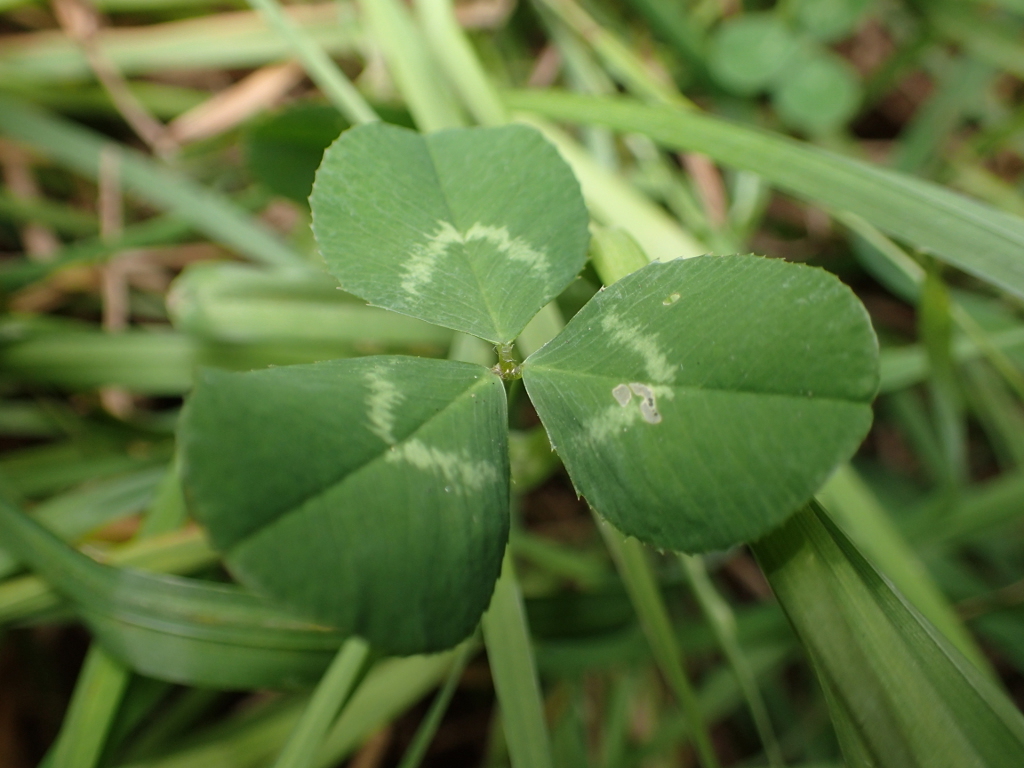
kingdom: Plantae
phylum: Tracheophyta
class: Magnoliopsida
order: Fabales
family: Fabaceae
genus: Trifolium
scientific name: Trifolium repens
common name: White clover
